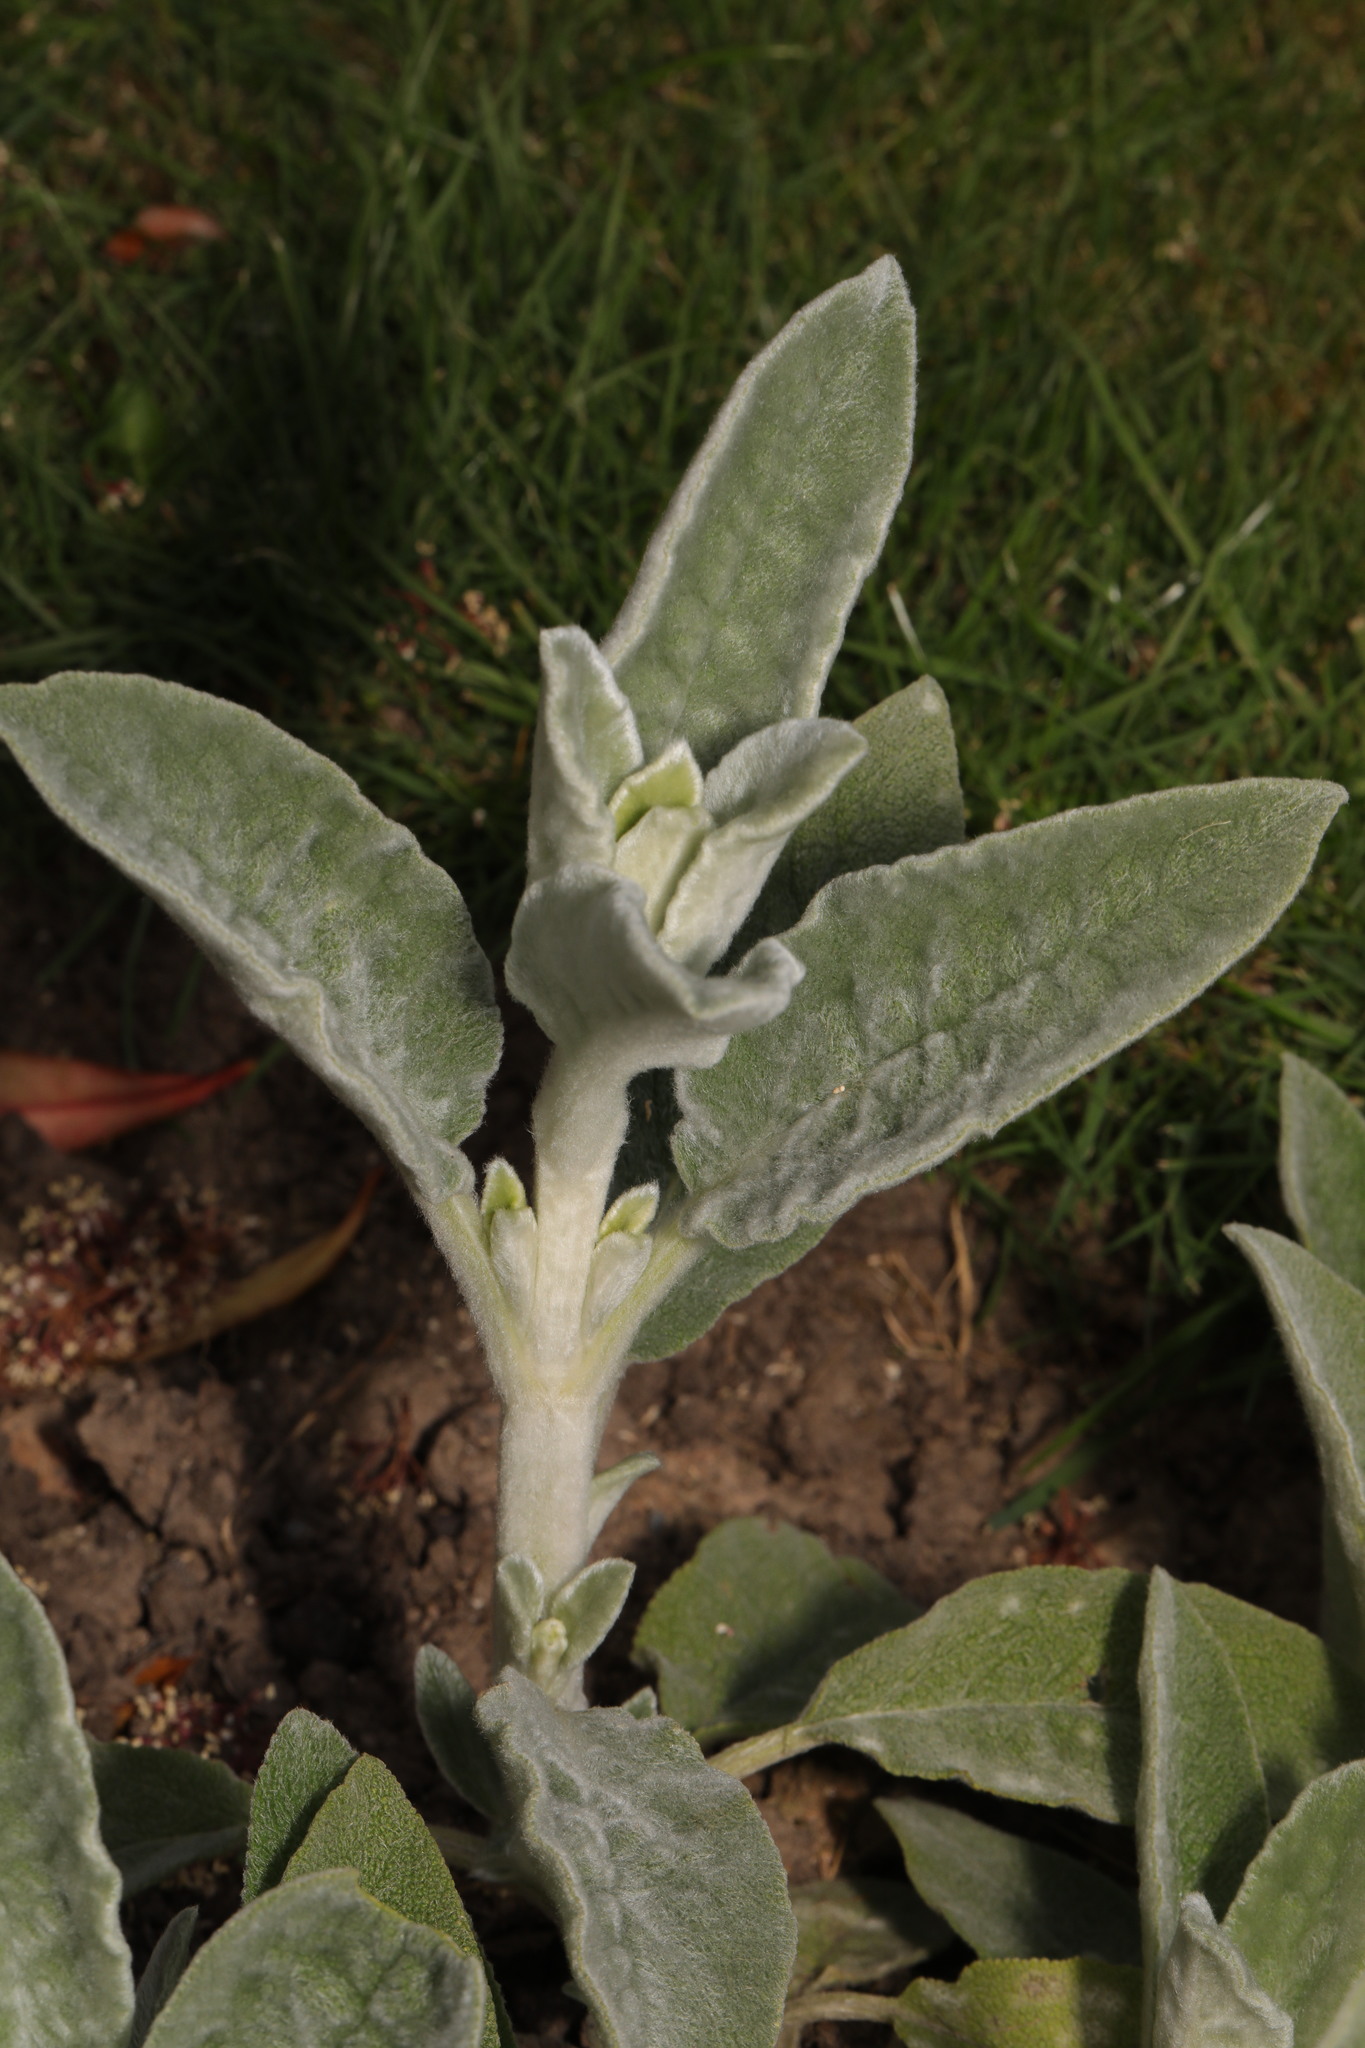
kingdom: Plantae
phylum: Tracheophyta
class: Magnoliopsida
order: Lamiales
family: Lamiaceae
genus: Stachys
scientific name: Stachys byzantina
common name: Lamb's-ear
